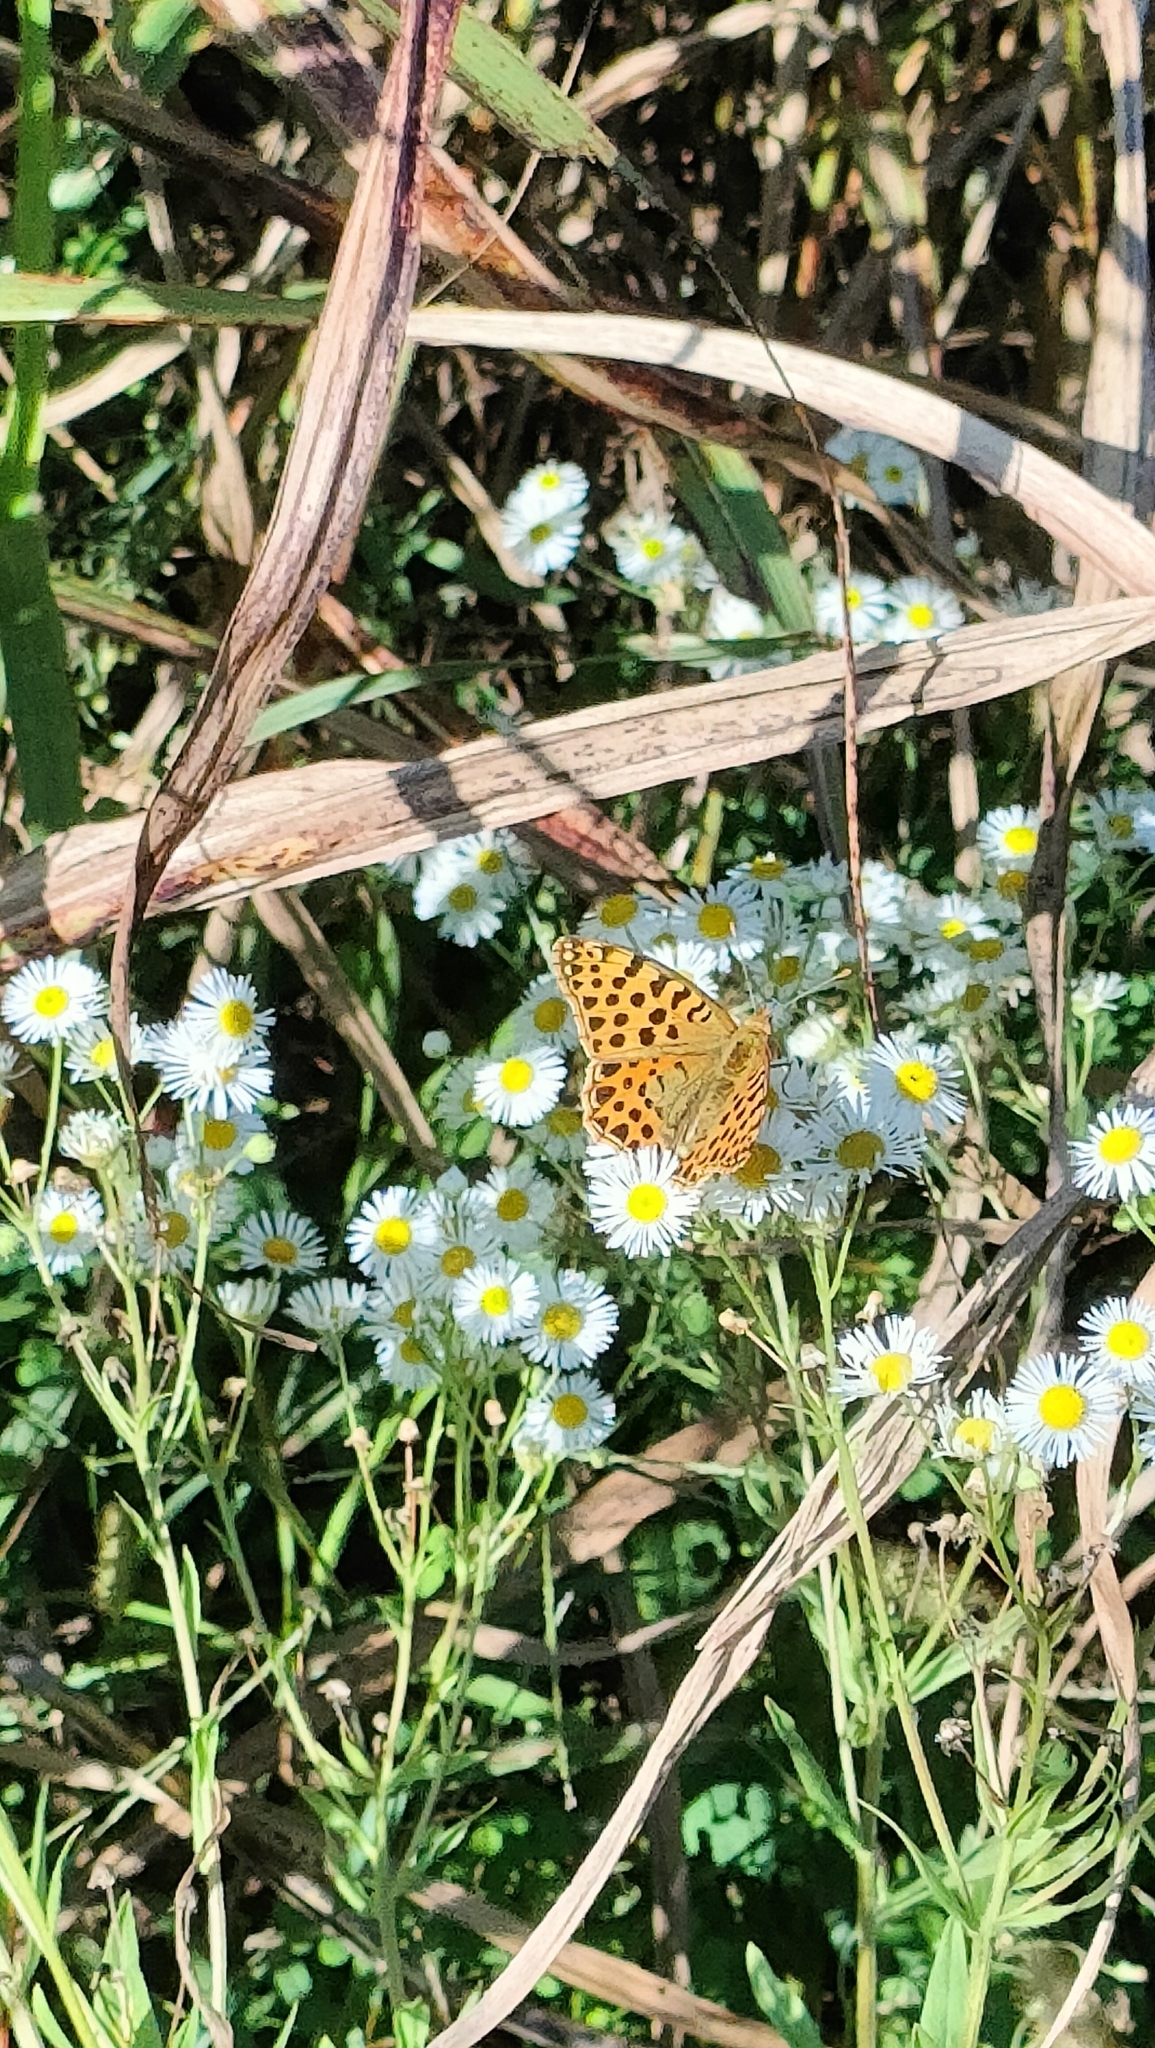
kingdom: Animalia
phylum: Arthropoda
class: Insecta
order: Lepidoptera
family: Nymphalidae
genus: Issoria
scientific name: Issoria lathonia
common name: Queen of spain fritillary
